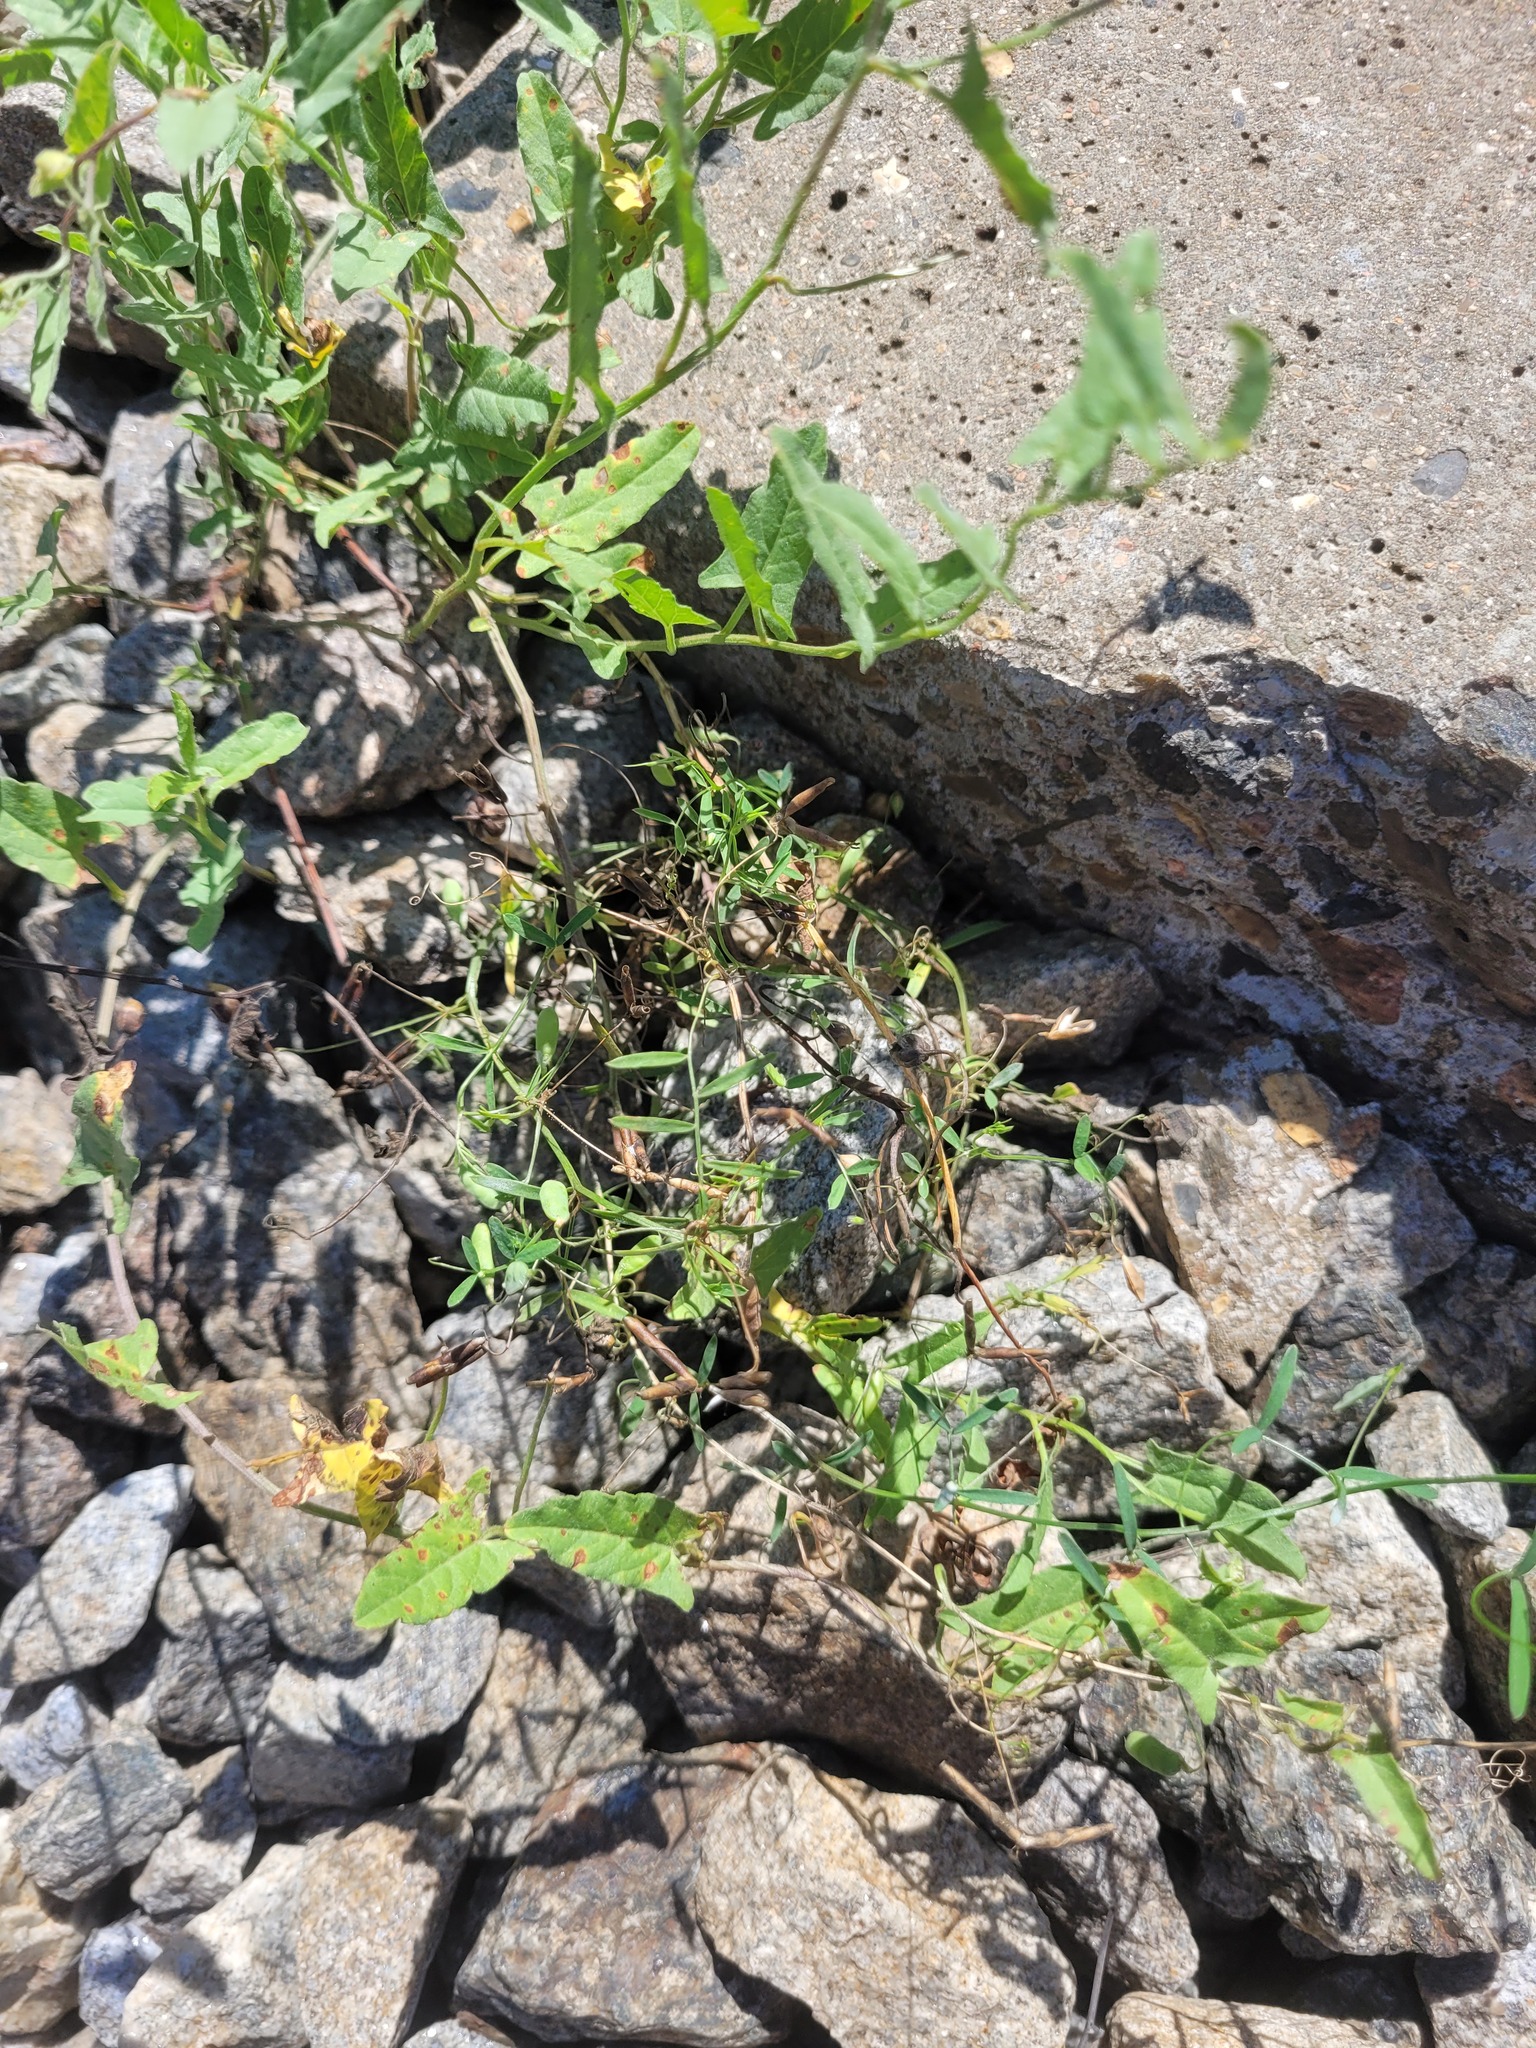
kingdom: Plantae
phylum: Tracheophyta
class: Magnoliopsida
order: Fabales
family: Fabaceae
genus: Vicia
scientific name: Vicia tetrasperma
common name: Smooth tare
